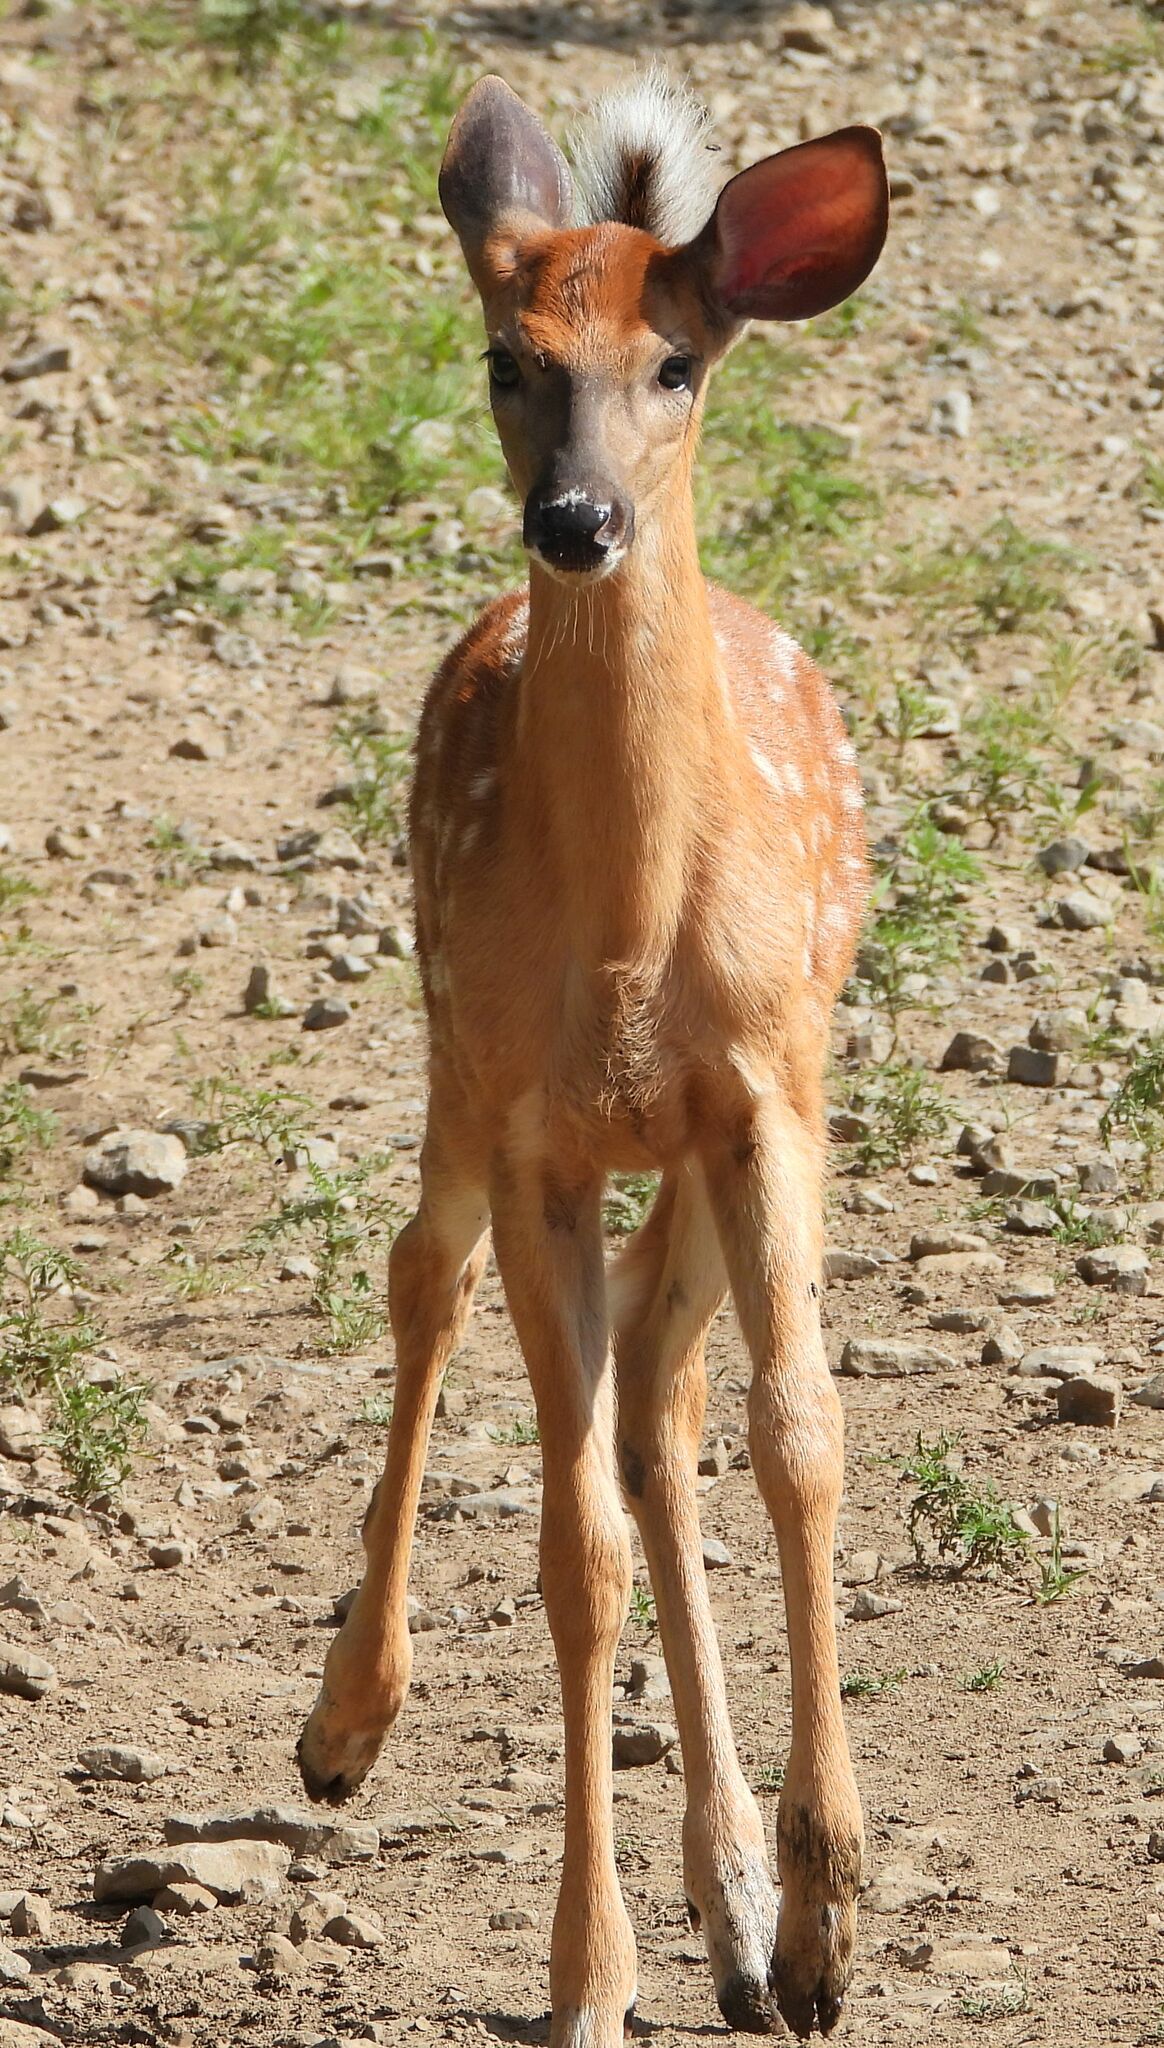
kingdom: Animalia
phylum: Chordata
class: Mammalia
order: Artiodactyla
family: Cervidae
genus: Odocoileus
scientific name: Odocoileus virginianus
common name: White-tailed deer
